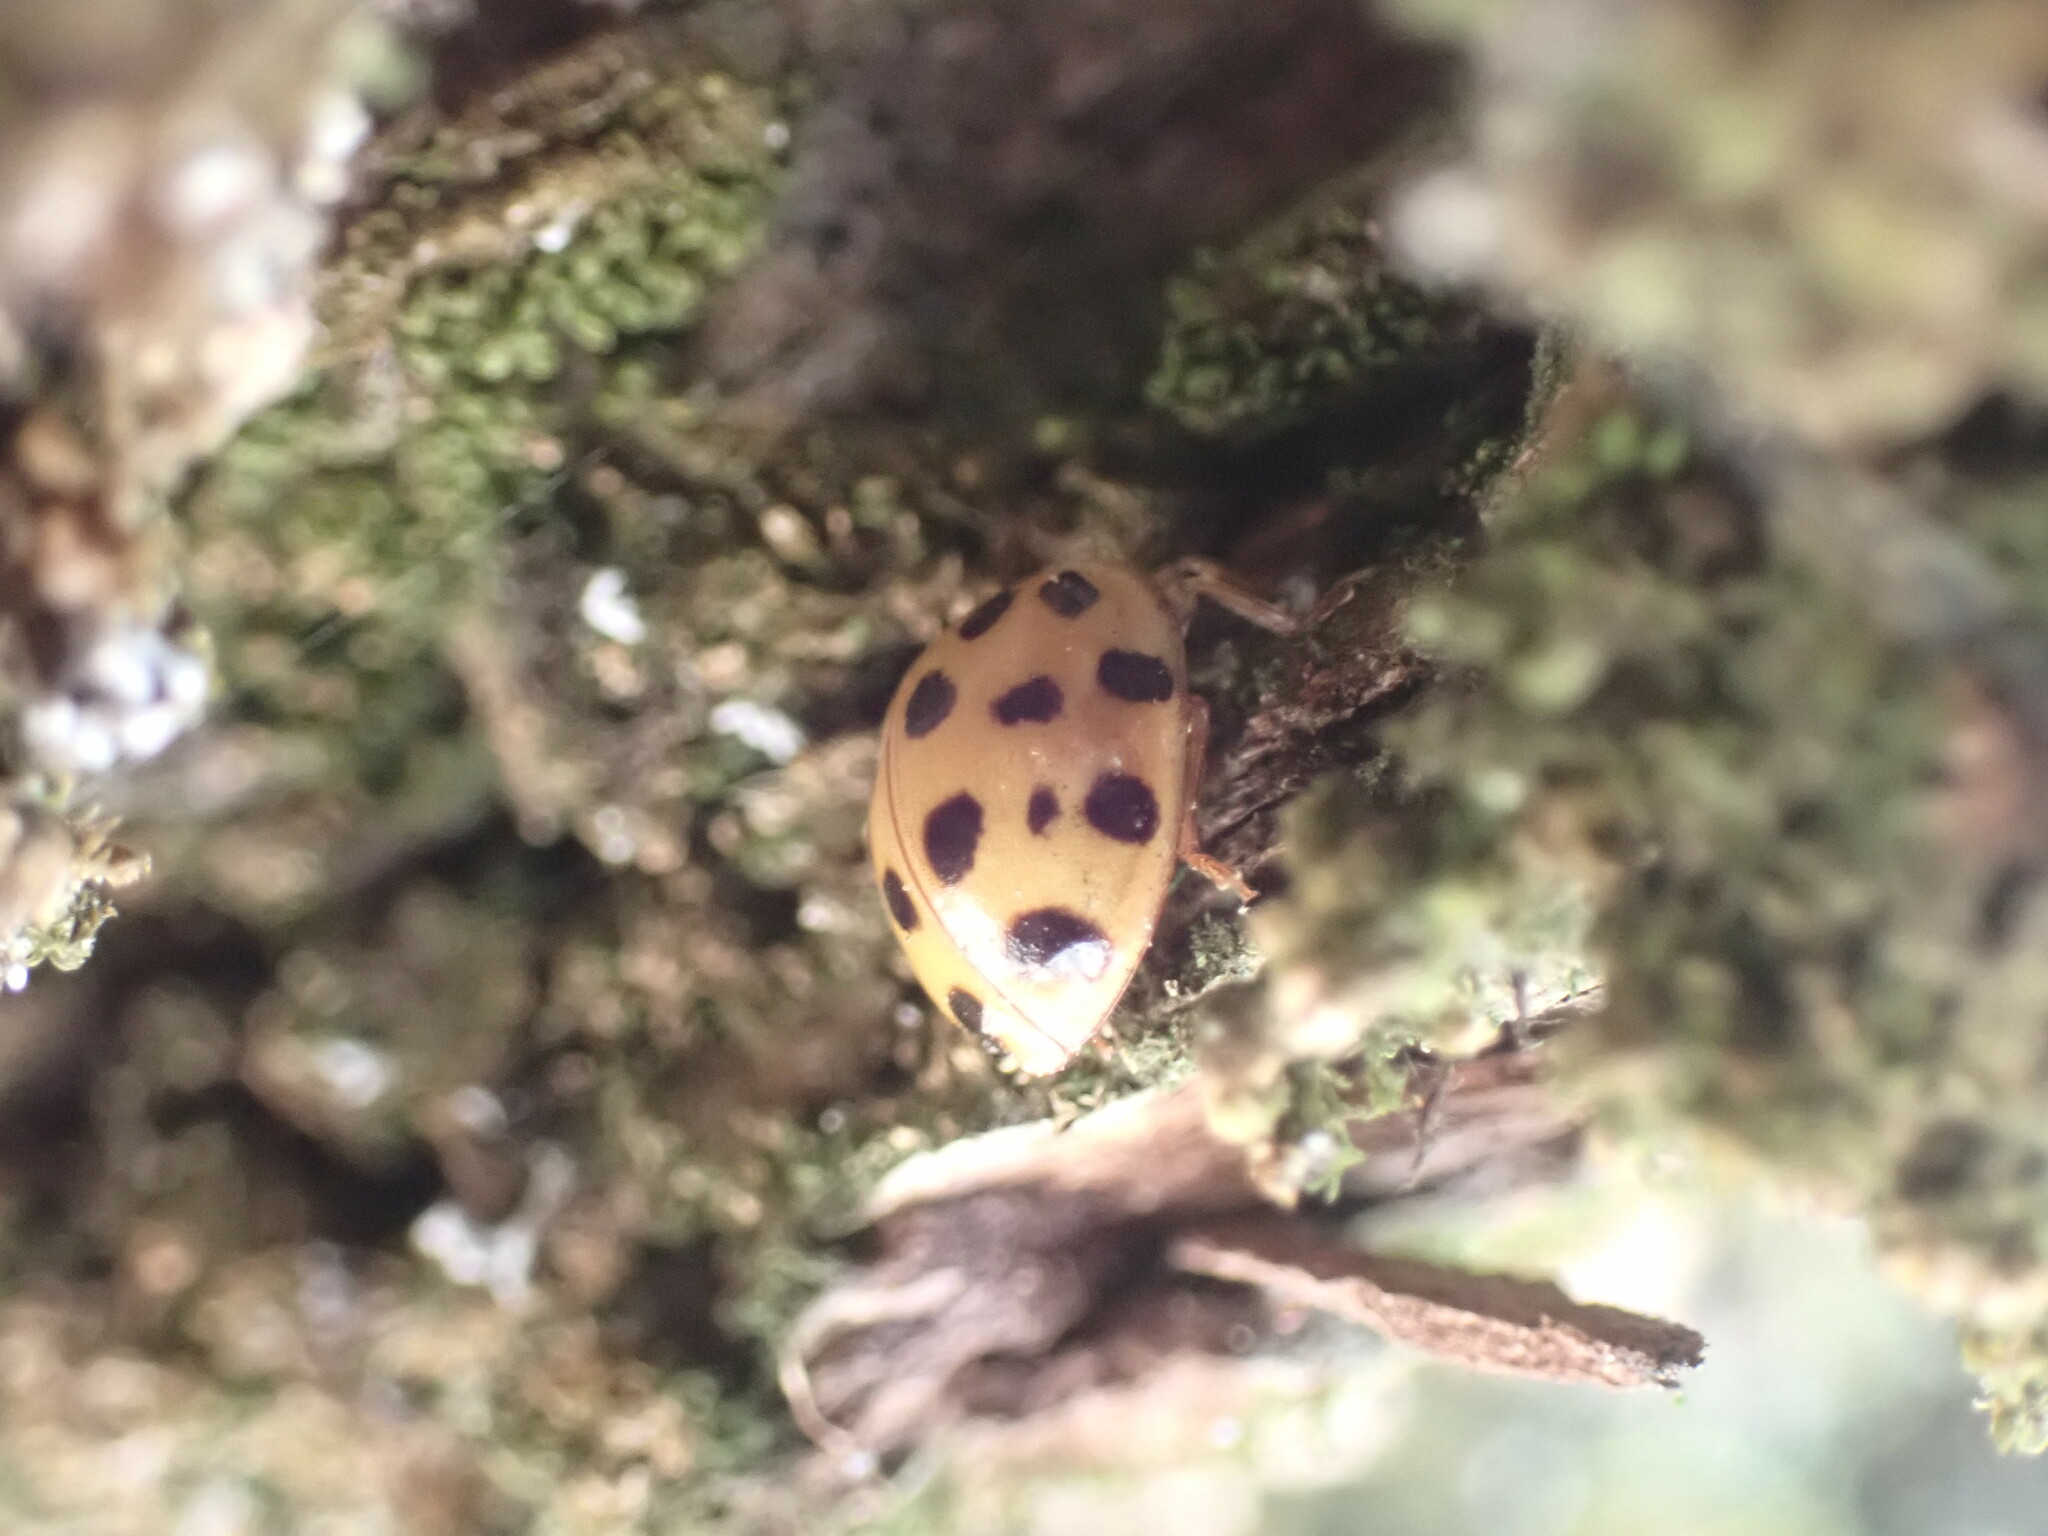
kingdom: Animalia
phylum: Arthropoda
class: Insecta
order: Coleoptera
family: Coccinellidae
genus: Harmonia
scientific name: Harmonia axyridis
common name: Harlequin ladybird
